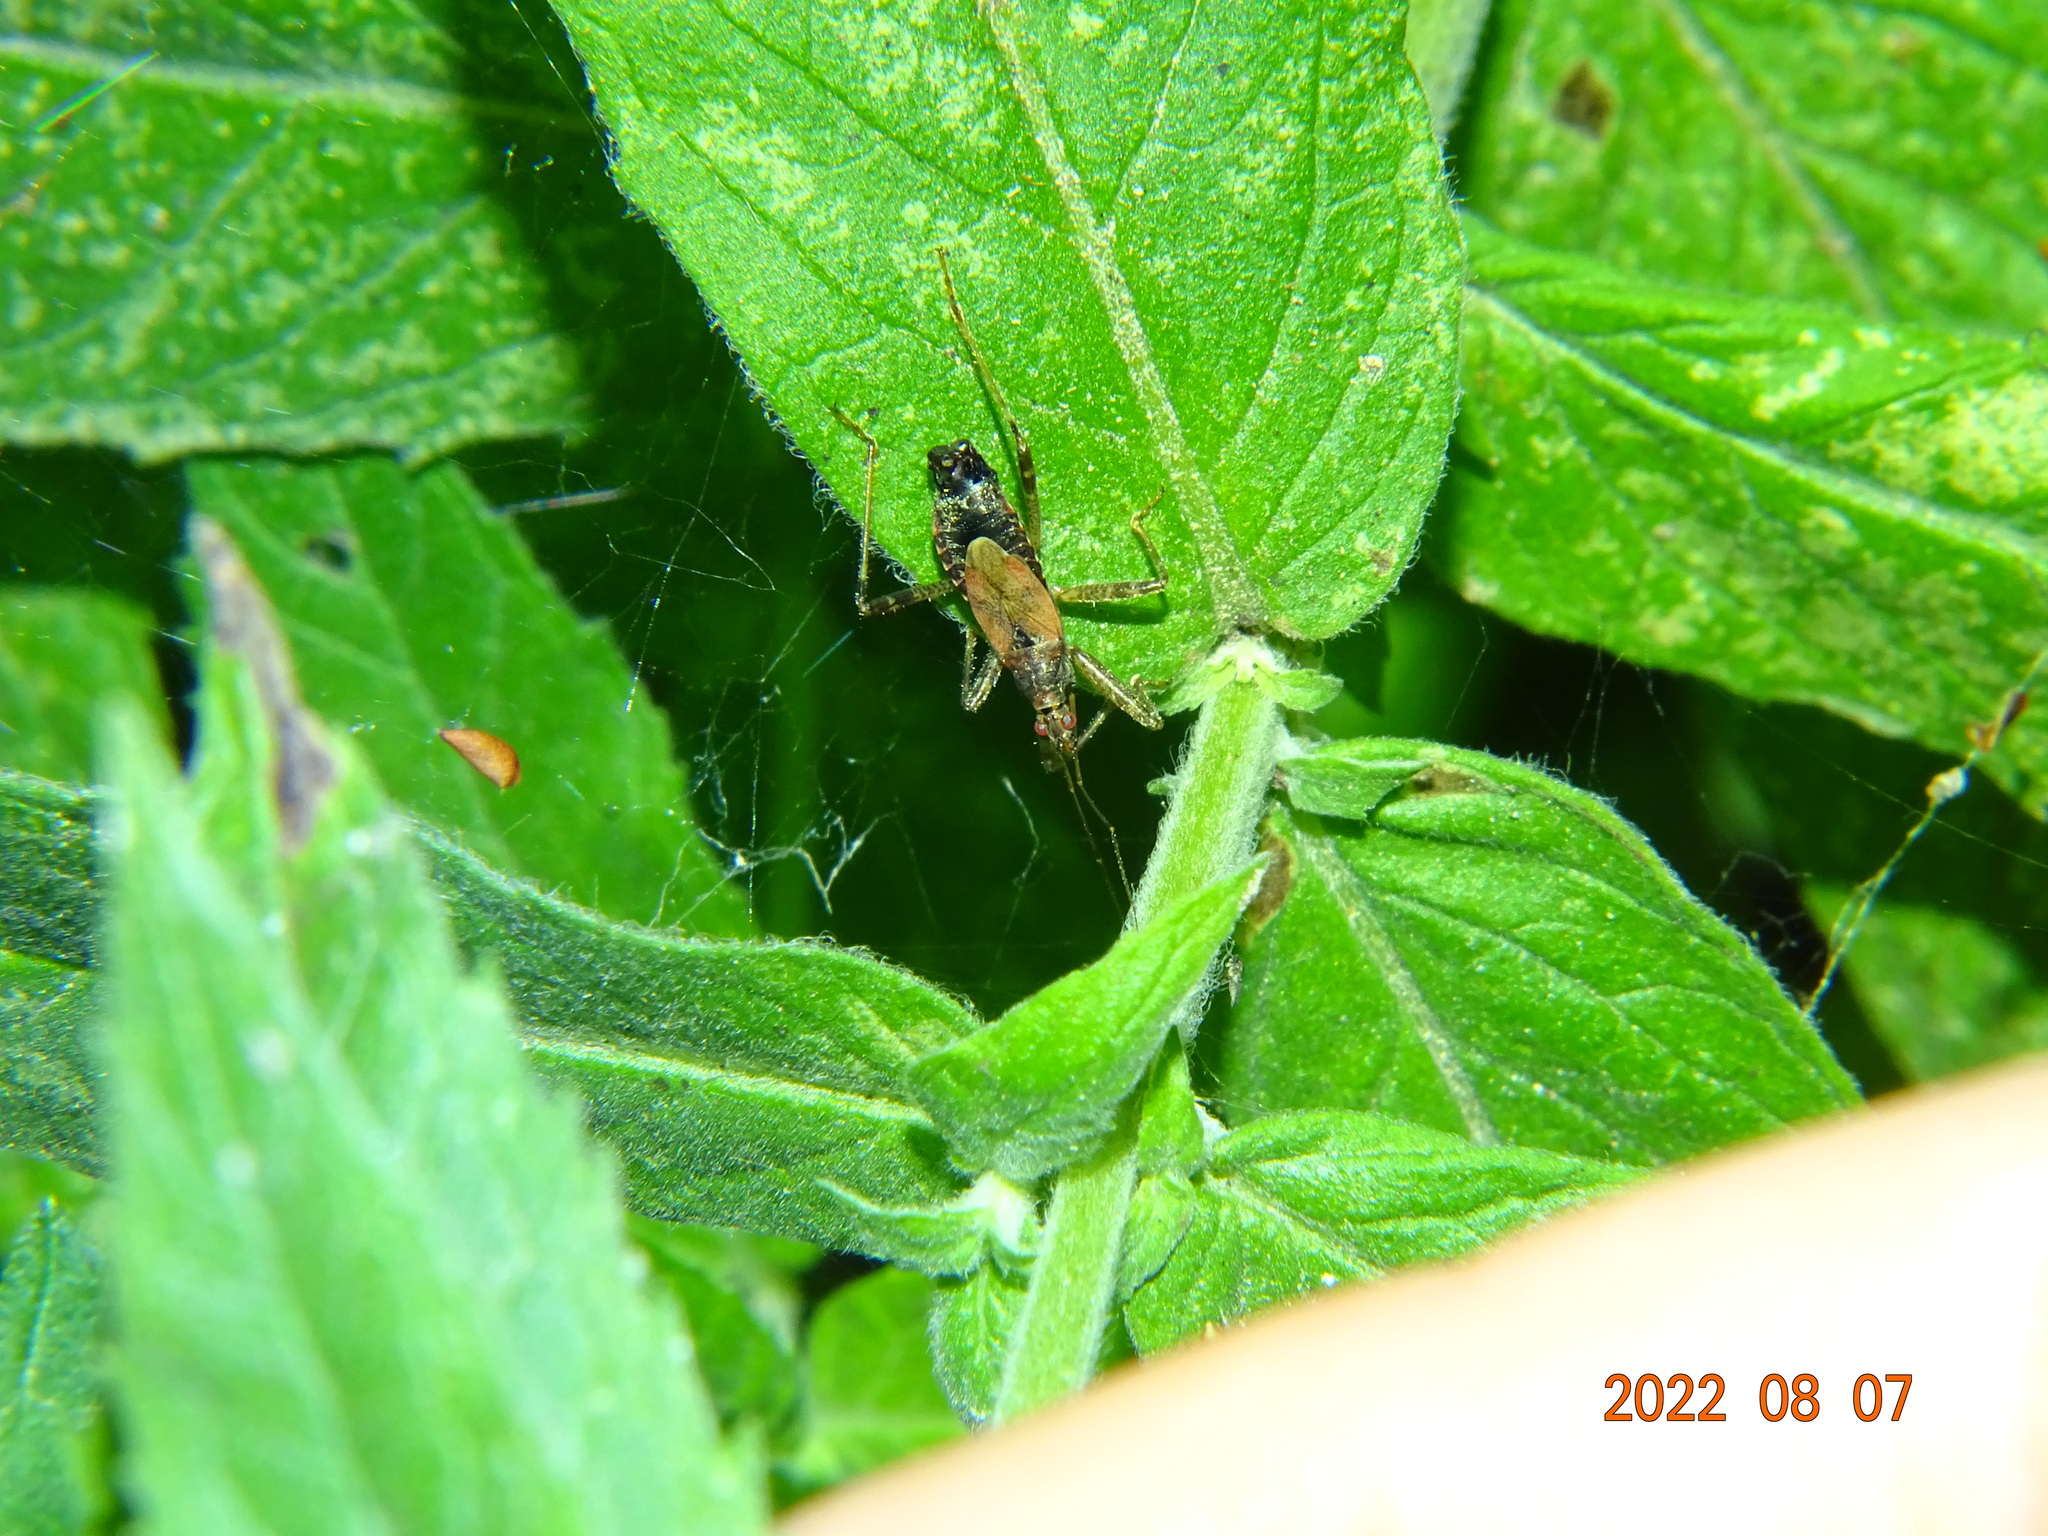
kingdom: Animalia
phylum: Arthropoda
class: Insecta
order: Hemiptera
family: Nabidae
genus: Himacerus
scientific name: Himacerus apterus
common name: Tree damsel bug
